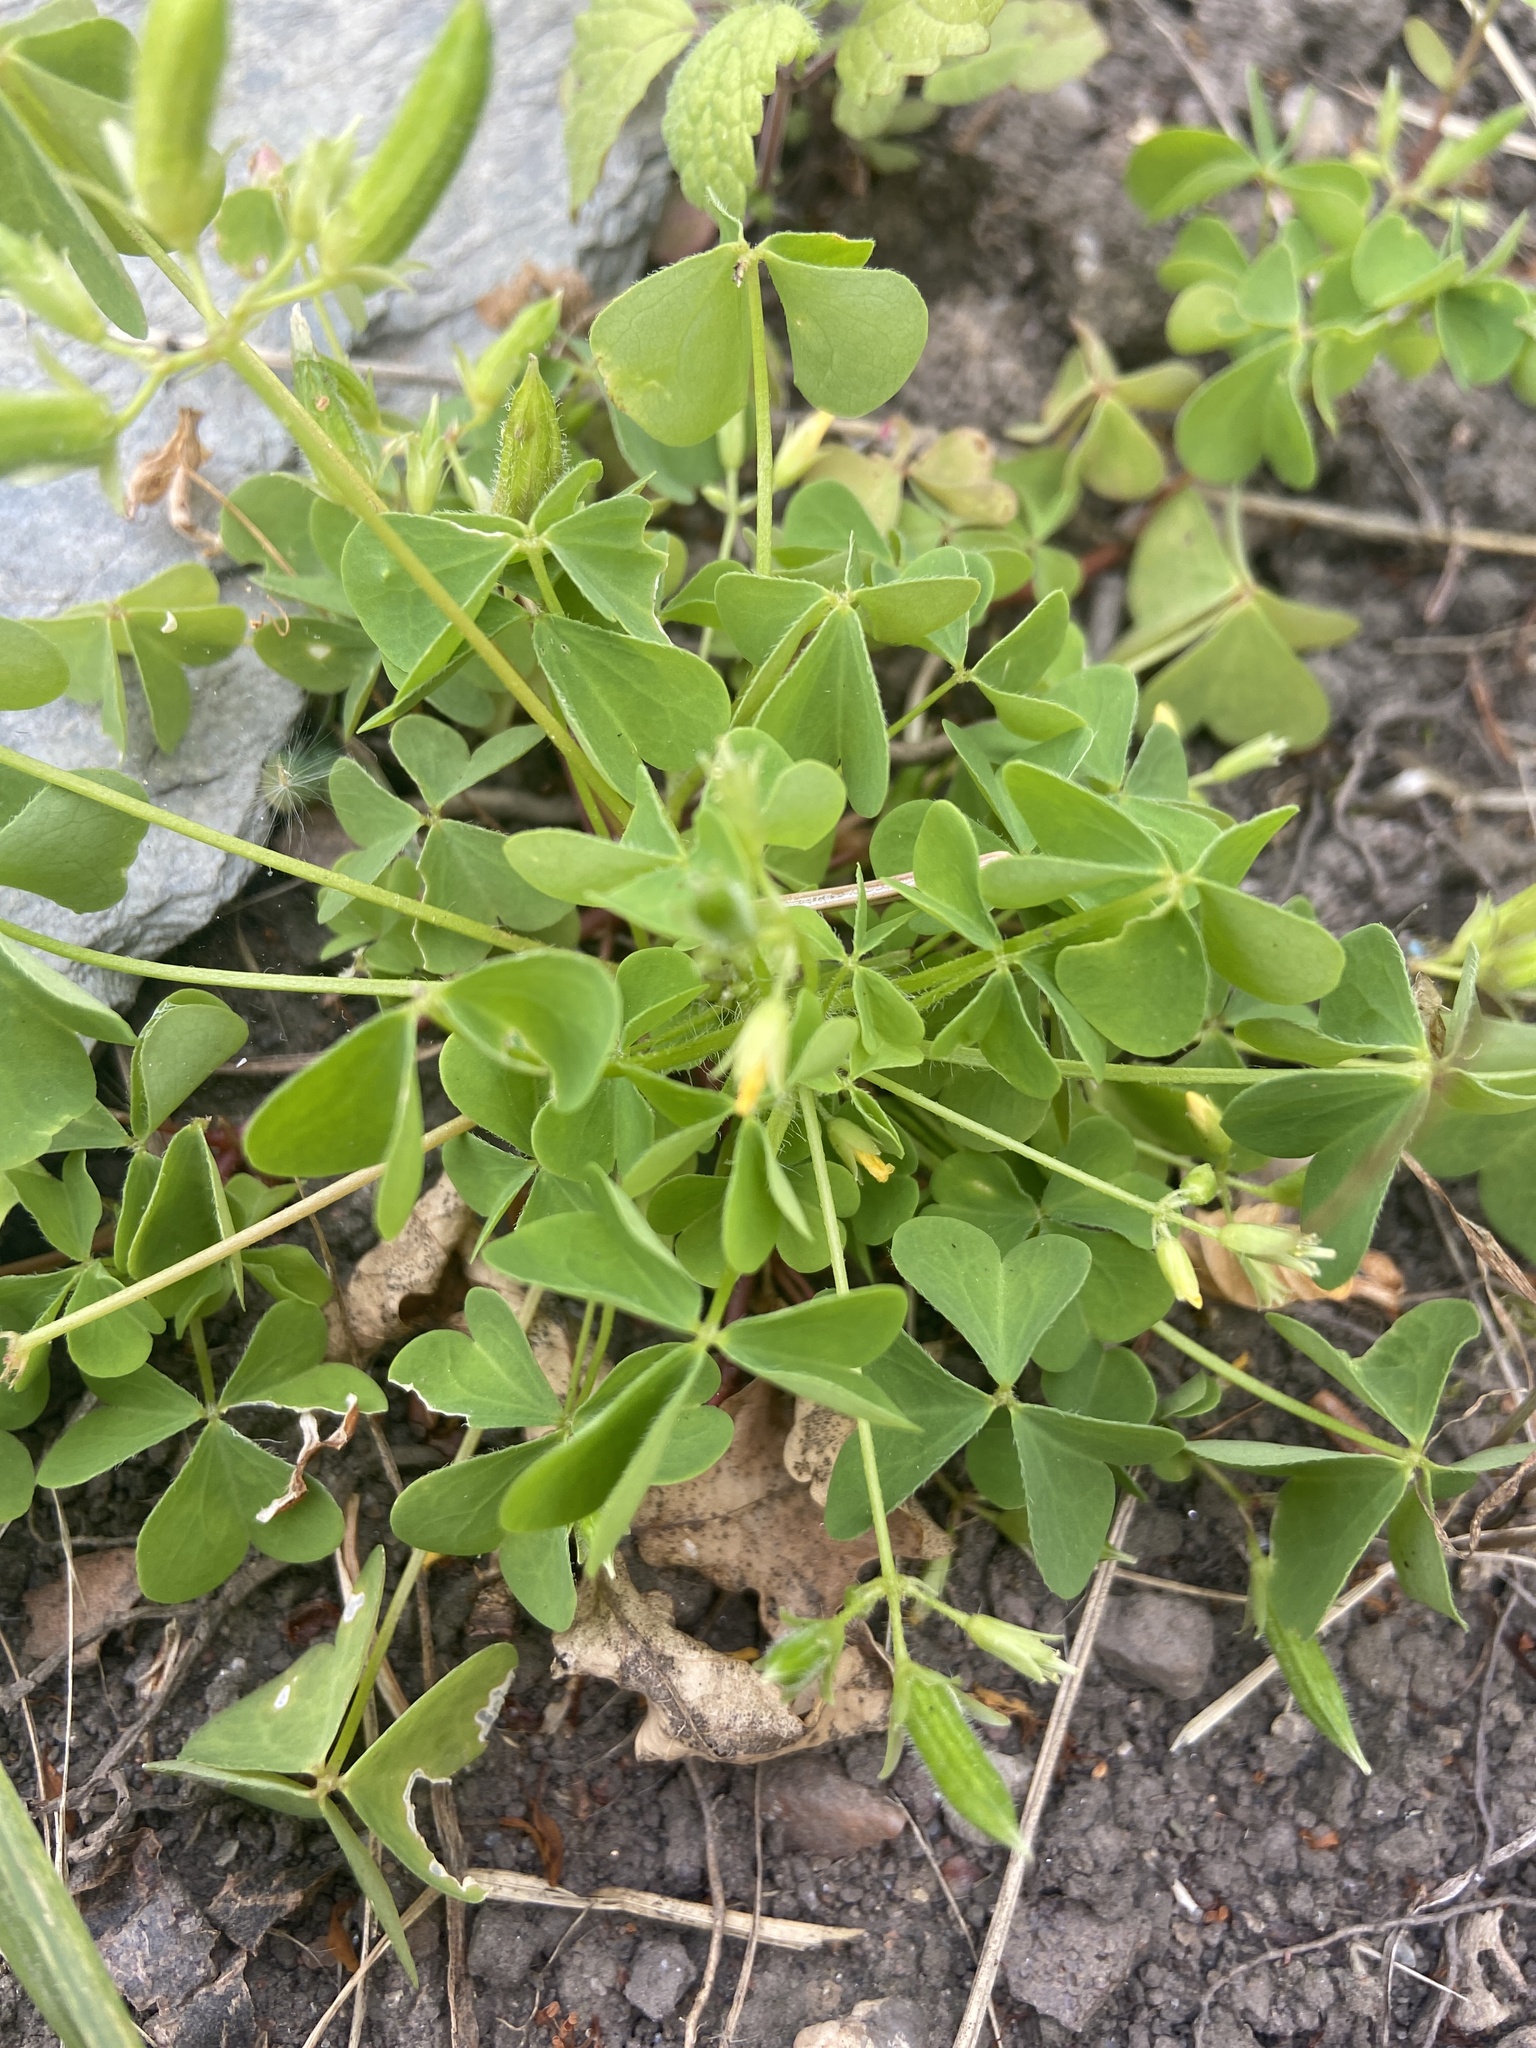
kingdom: Plantae
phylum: Tracheophyta
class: Magnoliopsida
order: Oxalidales
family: Oxalidaceae
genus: Oxalis
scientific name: Oxalis stricta
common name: Upright yellow-sorrel
